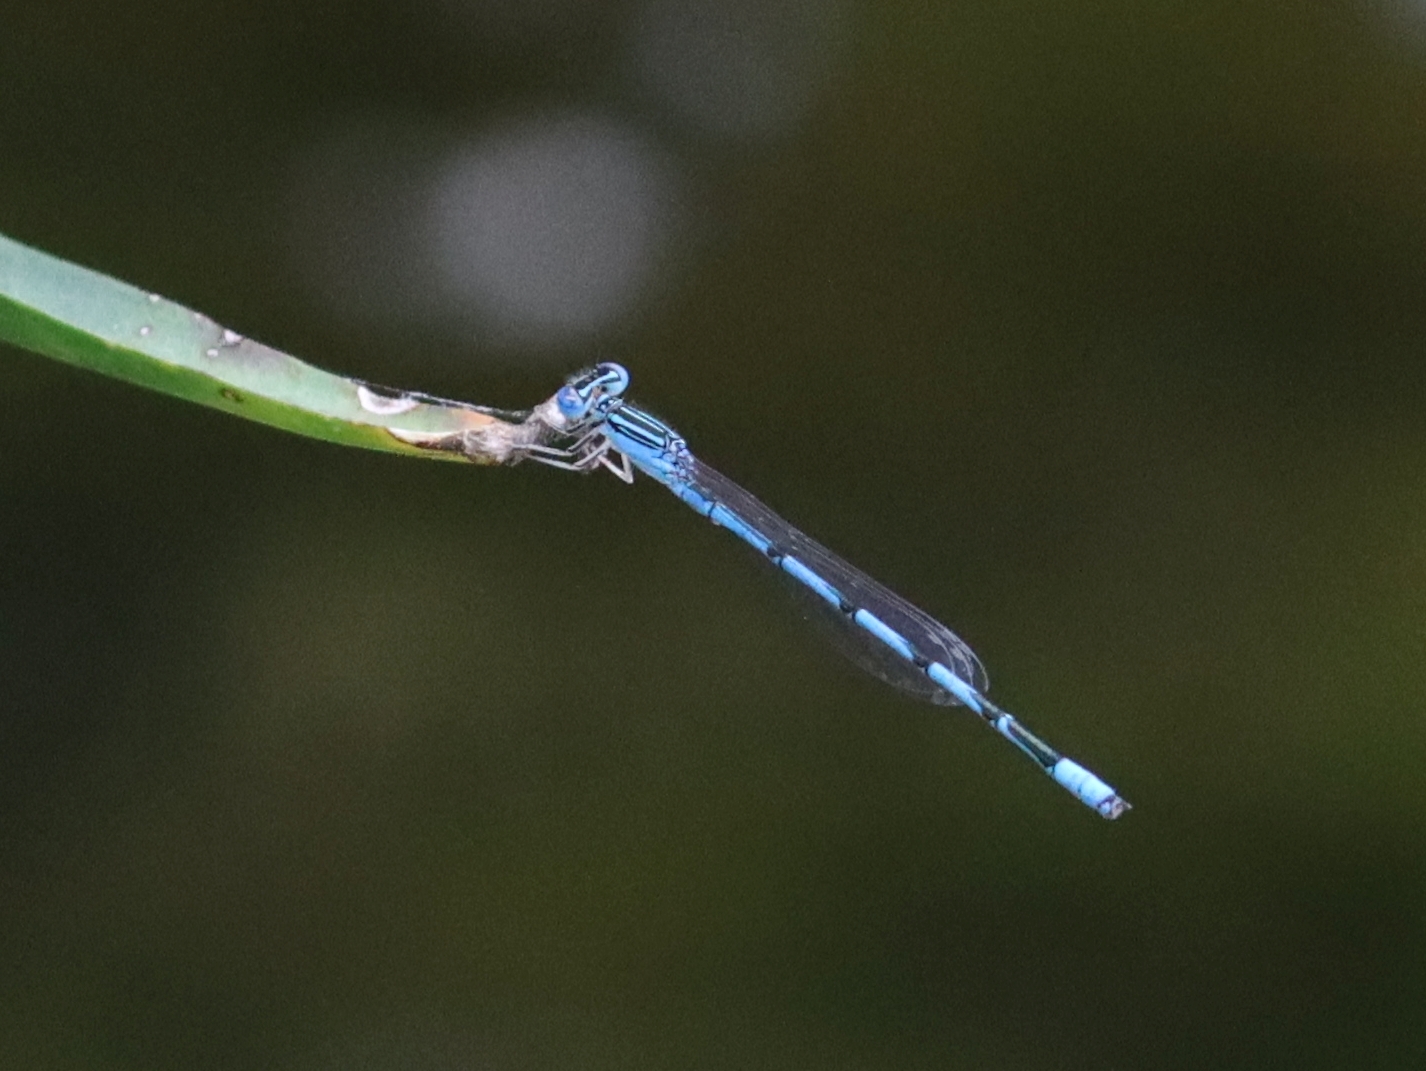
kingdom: Animalia
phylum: Arthropoda
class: Insecta
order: Odonata
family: Coenagrionidae
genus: Enallagma
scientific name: Enallagma basidens
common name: Double-striped bluet
